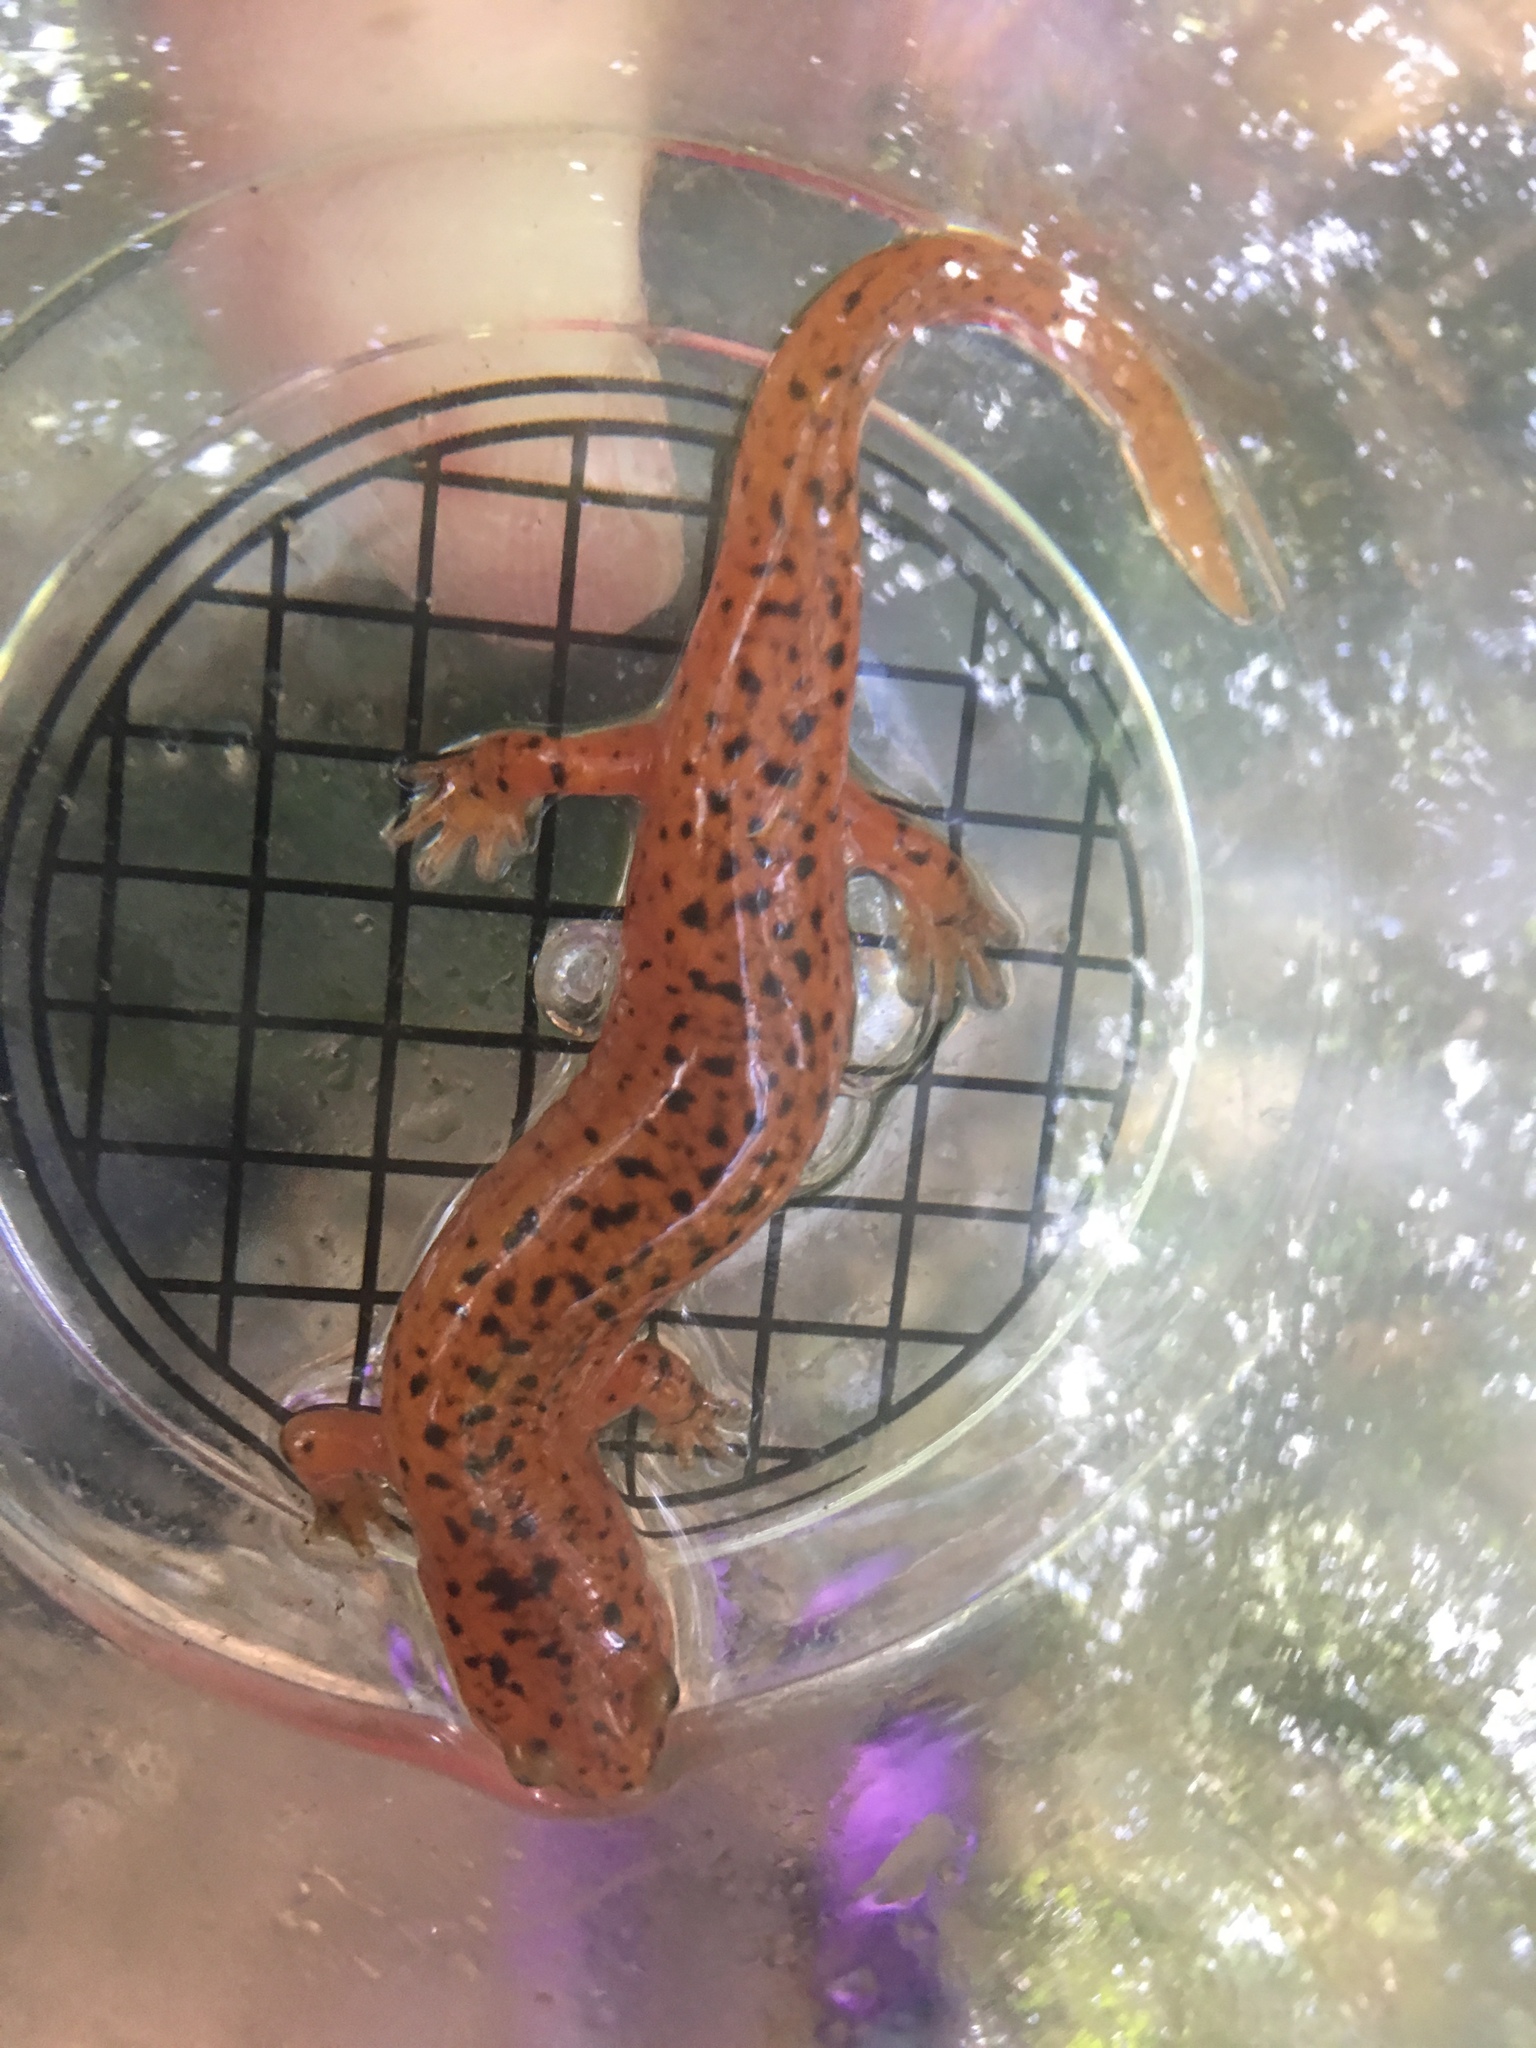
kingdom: Animalia
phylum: Chordata
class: Amphibia
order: Caudata
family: Plethodontidae
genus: Pseudotriton
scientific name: Pseudotriton ruber
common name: Red salamander
